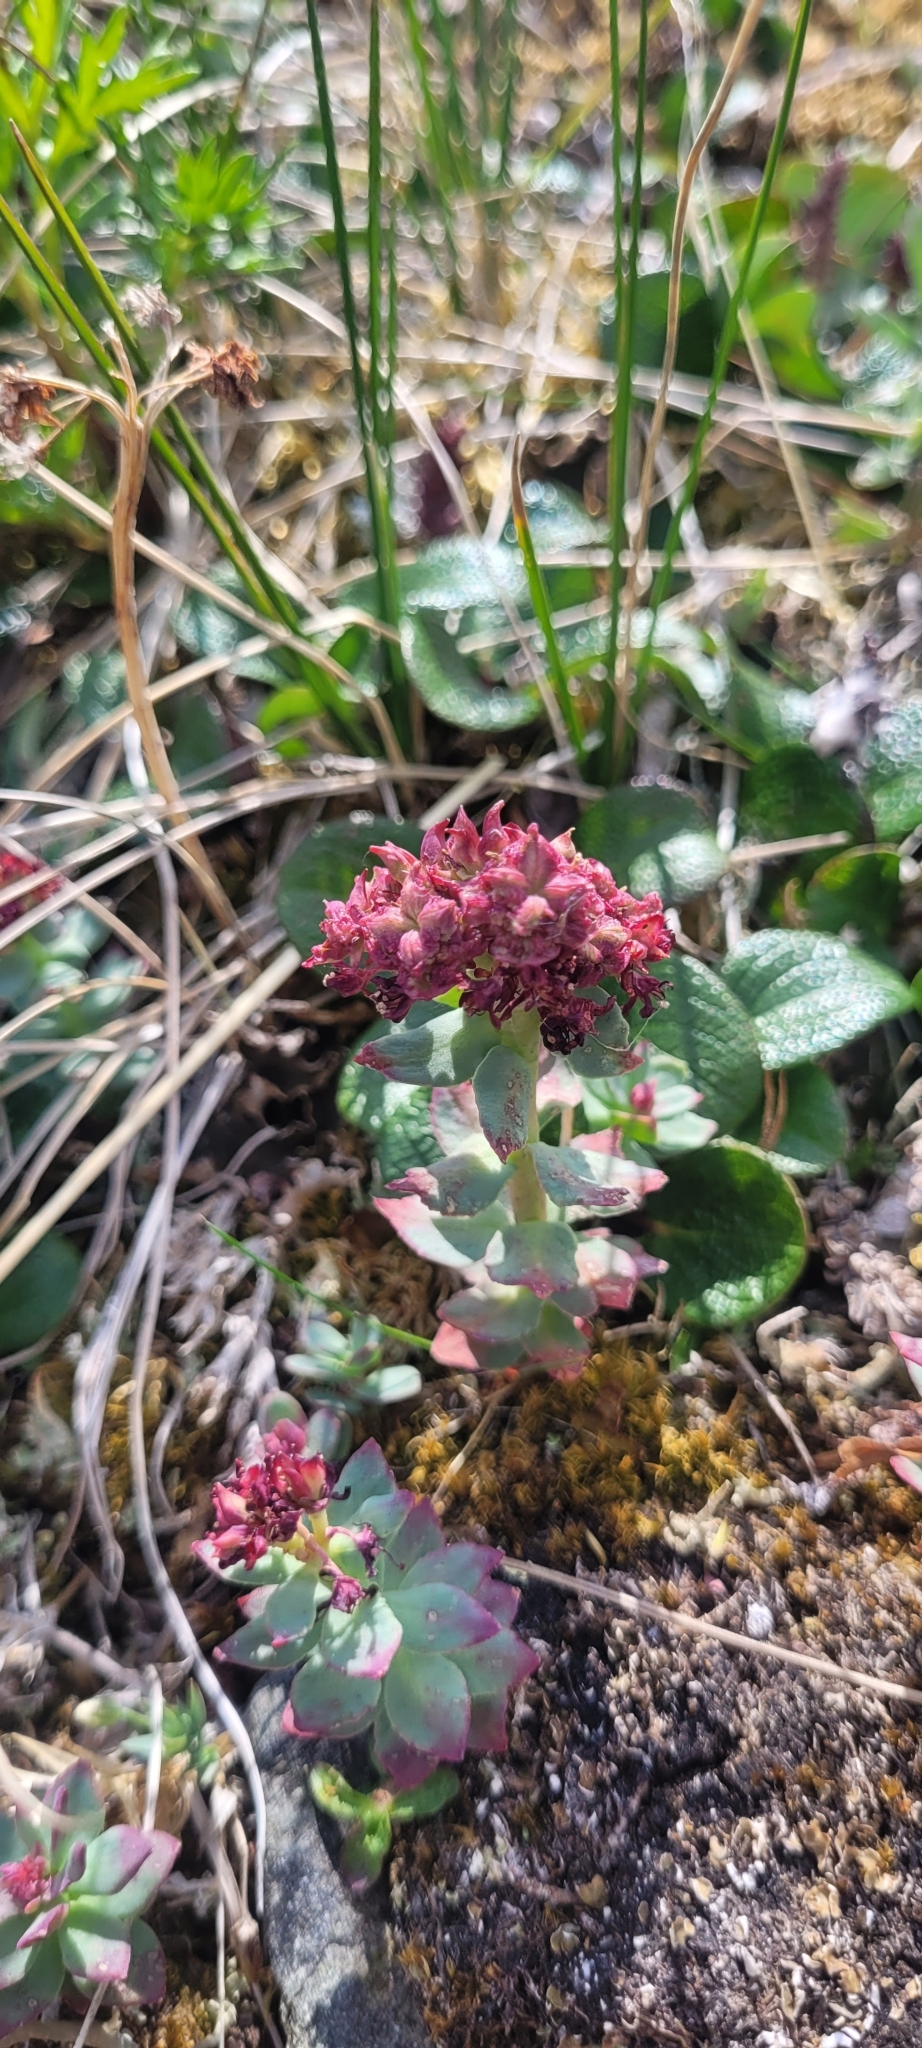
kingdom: Plantae
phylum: Tracheophyta
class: Magnoliopsida
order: Saxifragales
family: Crassulaceae
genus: Rhodiola
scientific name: Rhodiola integrifolia
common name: Western roseroot
